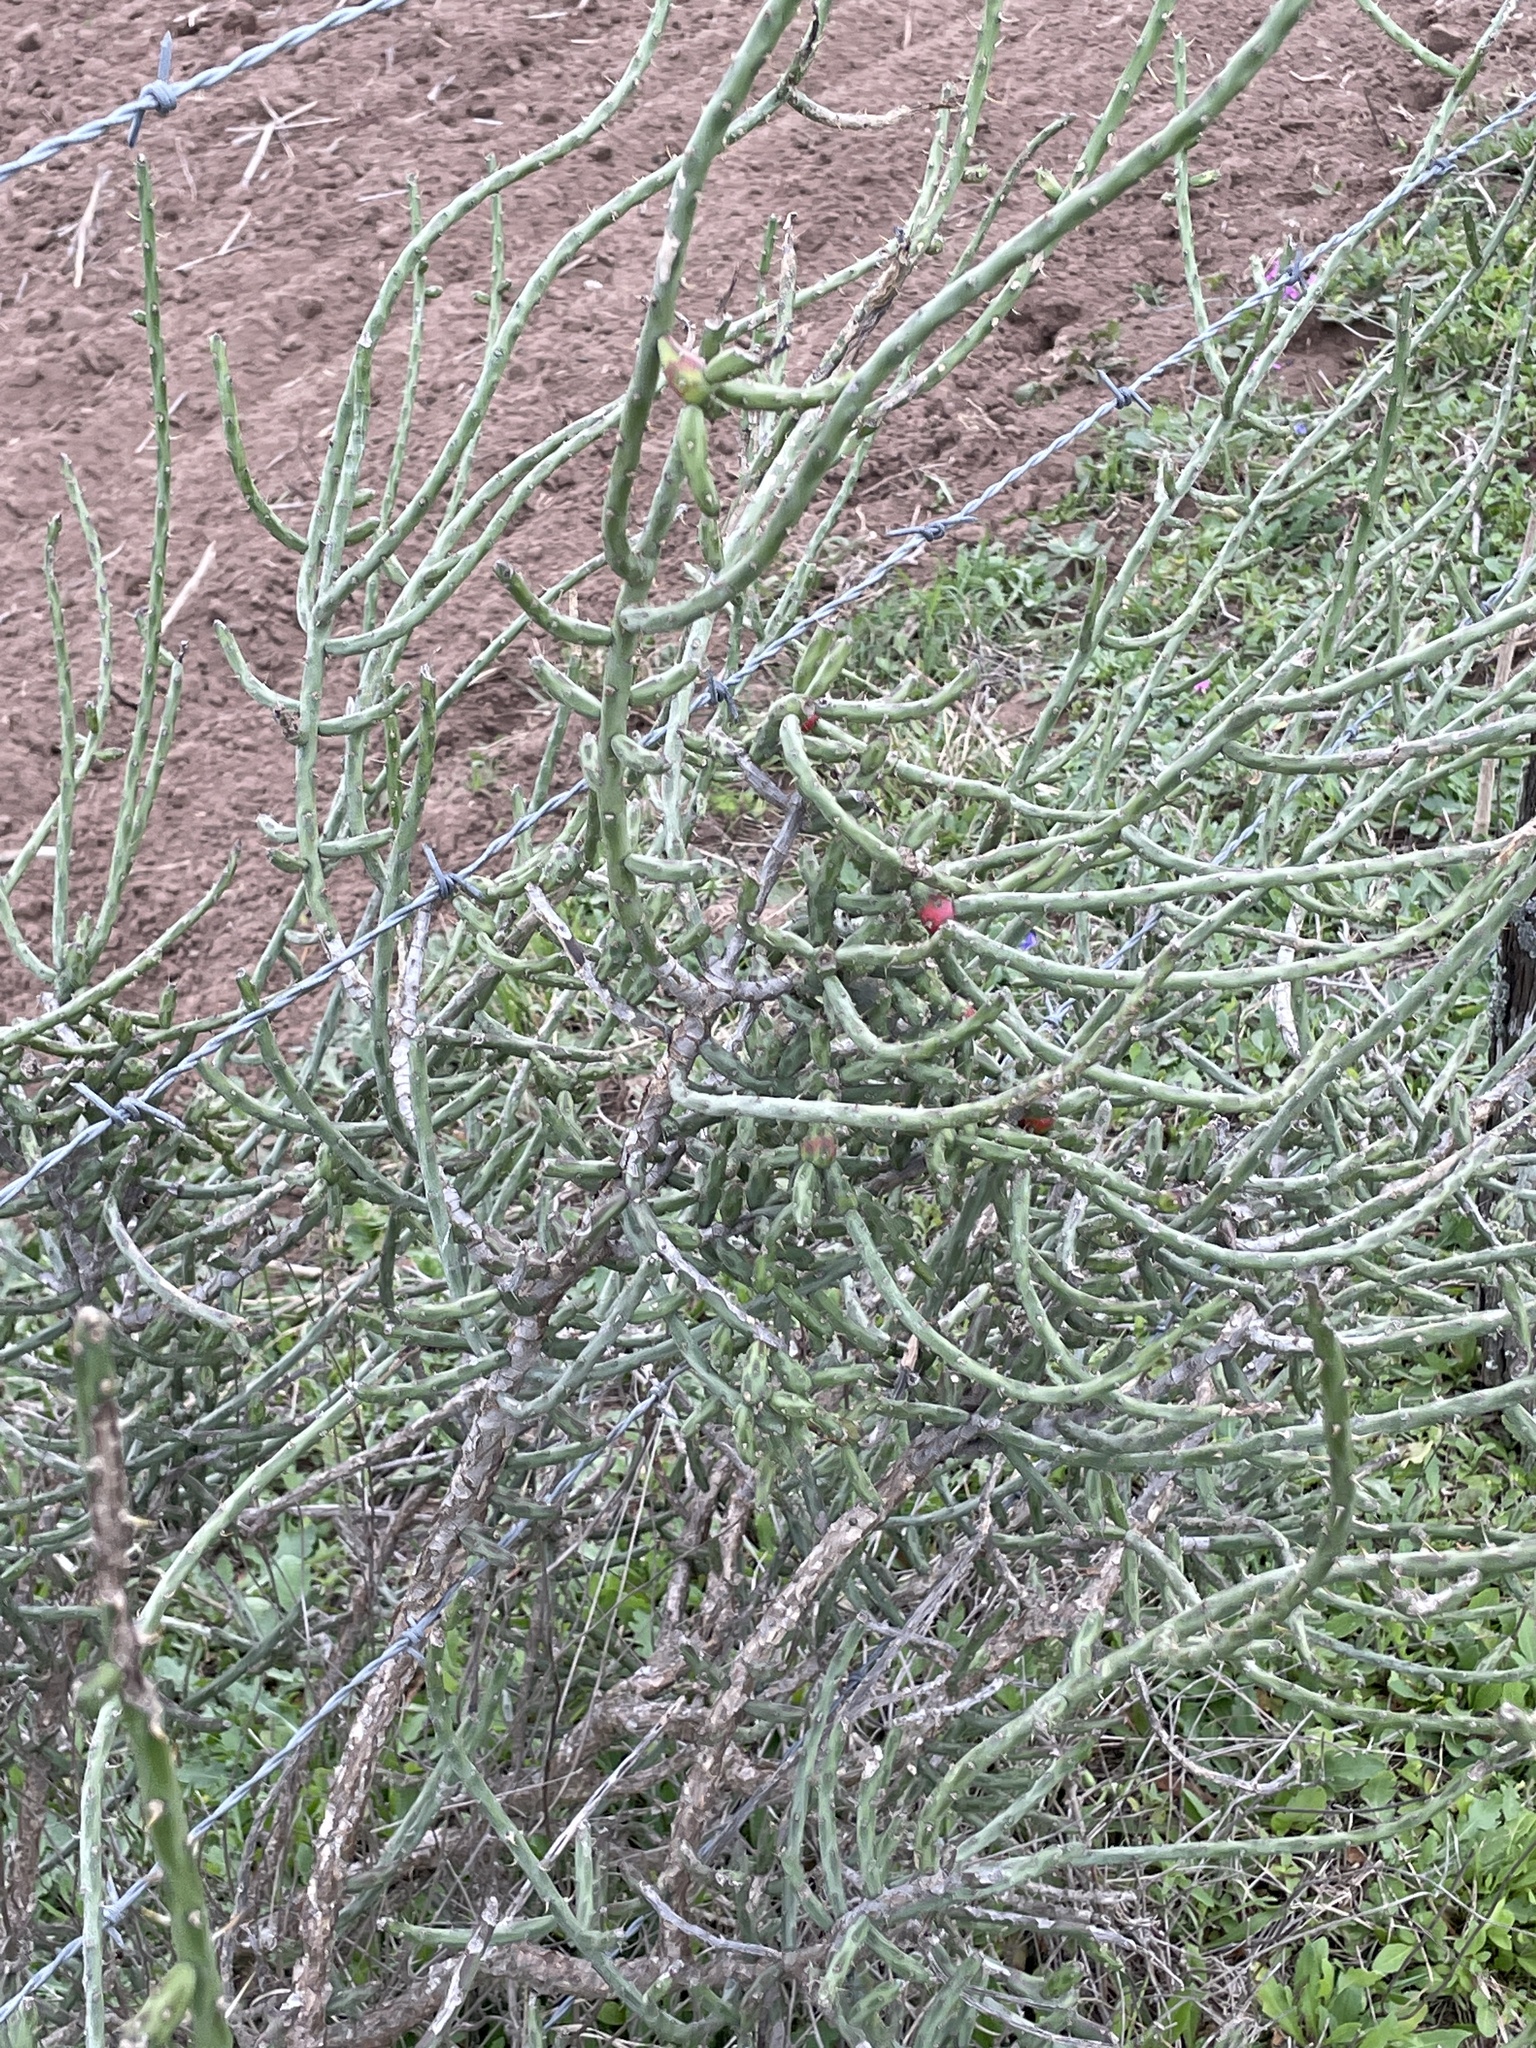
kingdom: Plantae
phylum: Tracheophyta
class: Magnoliopsida
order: Caryophyllales
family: Cactaceae
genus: Cylindropuntia
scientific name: Cylindropuntia leptocaulis
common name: Christmas cactus
